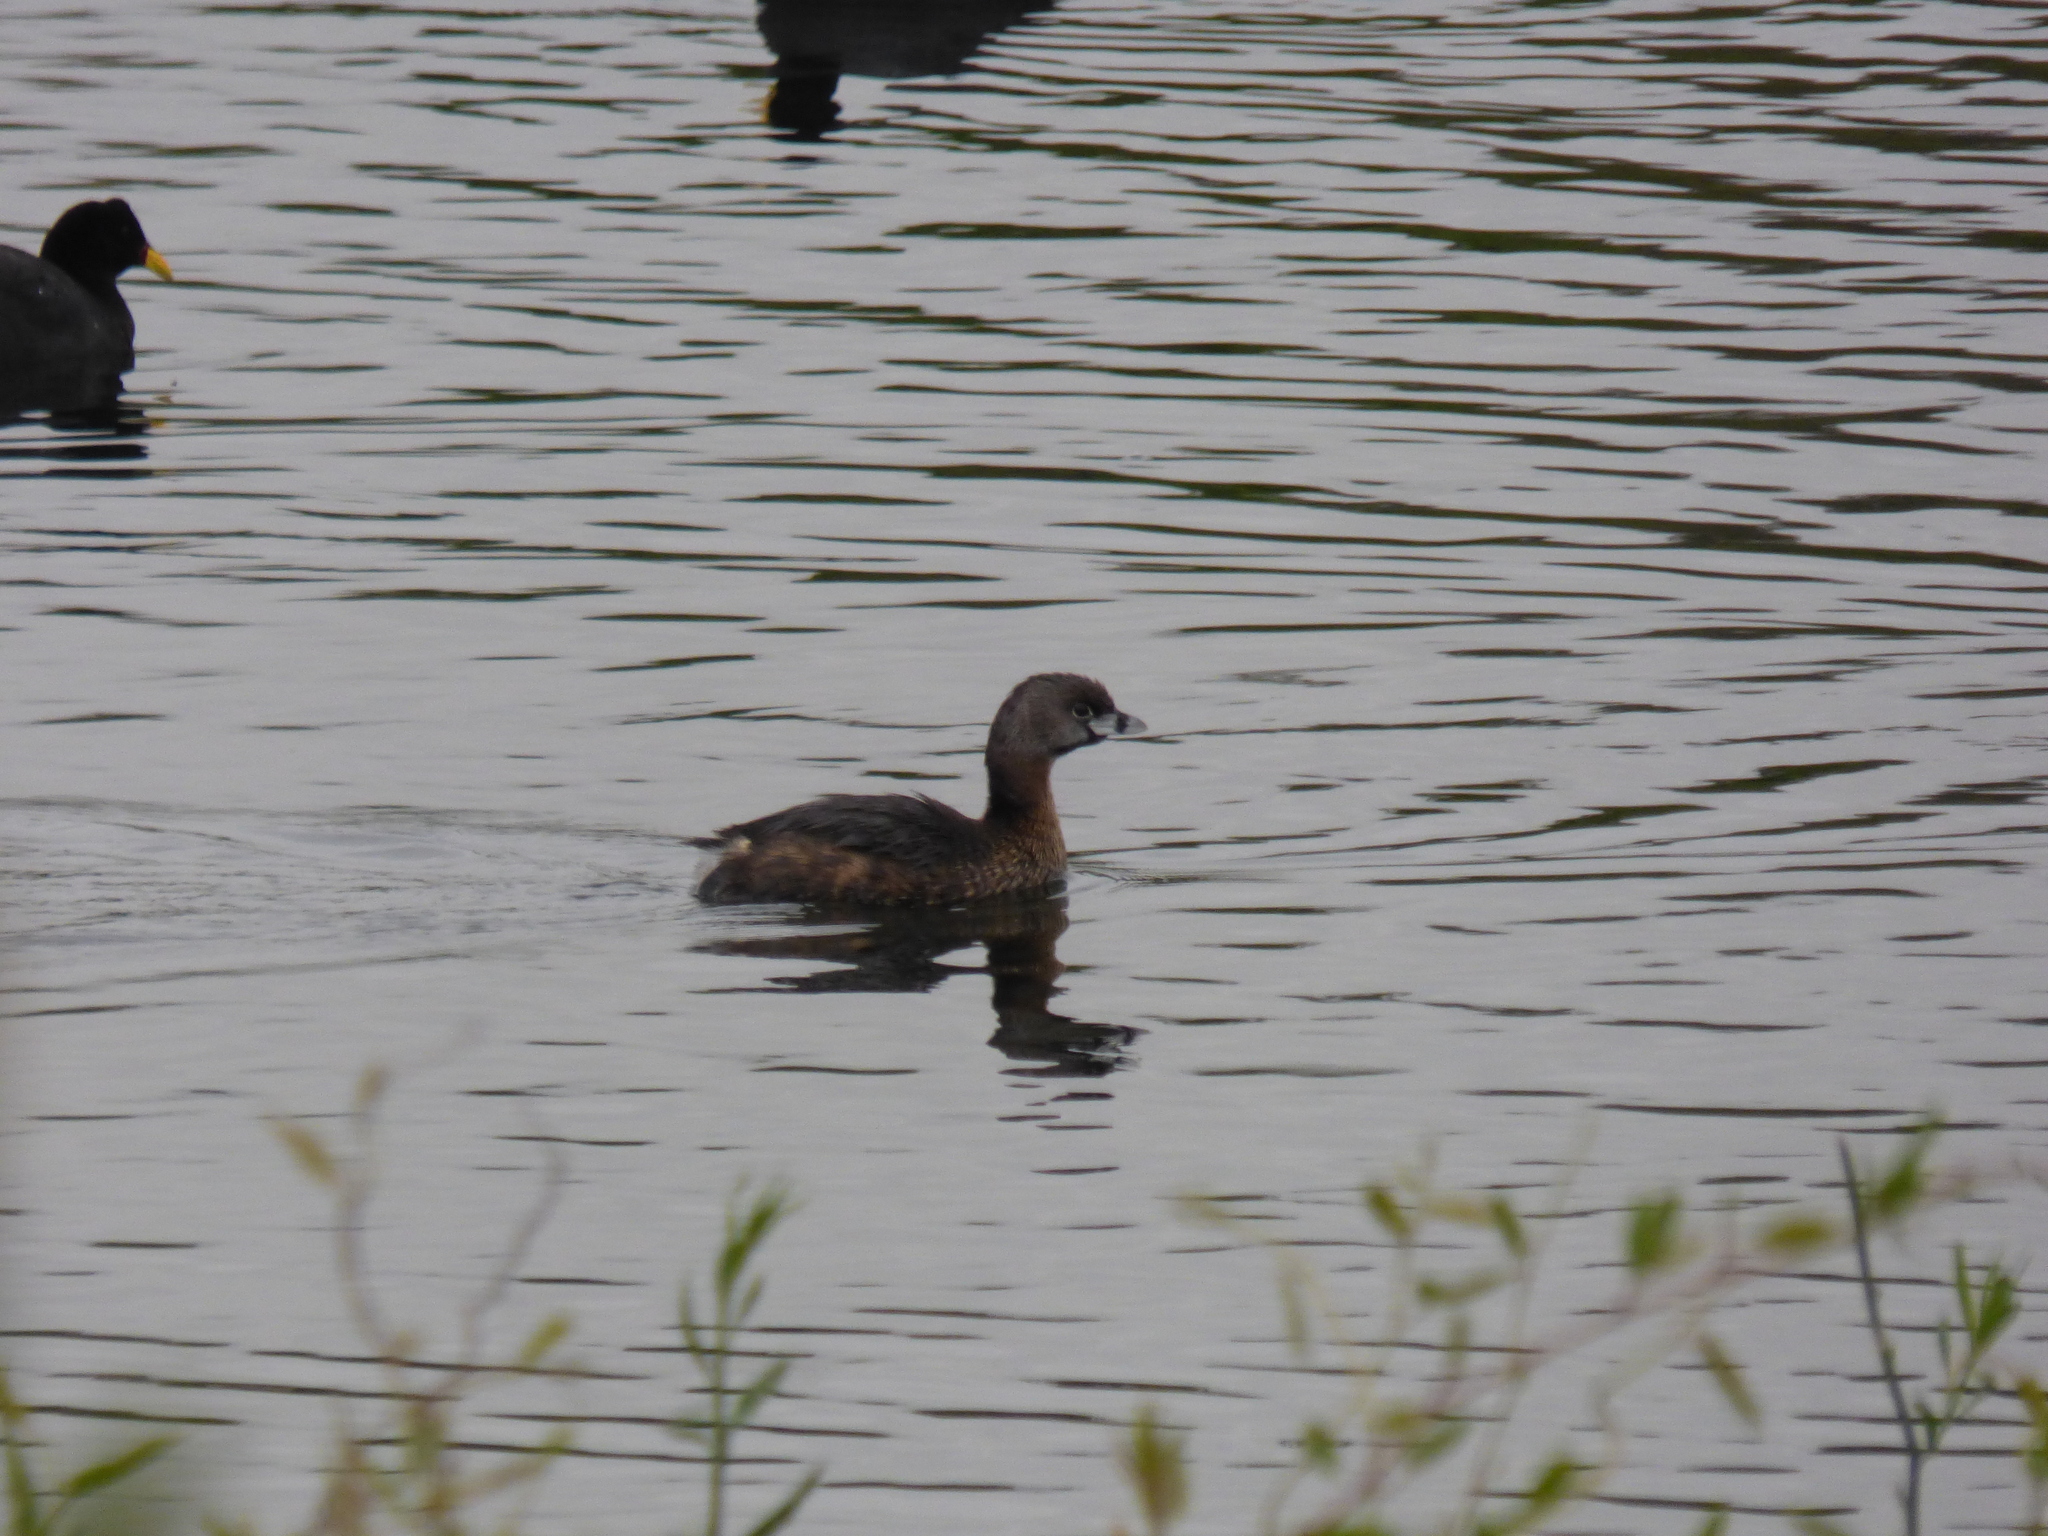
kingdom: Animalia
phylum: Chordata
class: Aves
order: Podicipediformes
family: Podicipedidae
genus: Podilymbus
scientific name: Podilymbus podiceps
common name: Pied-billed grebe
